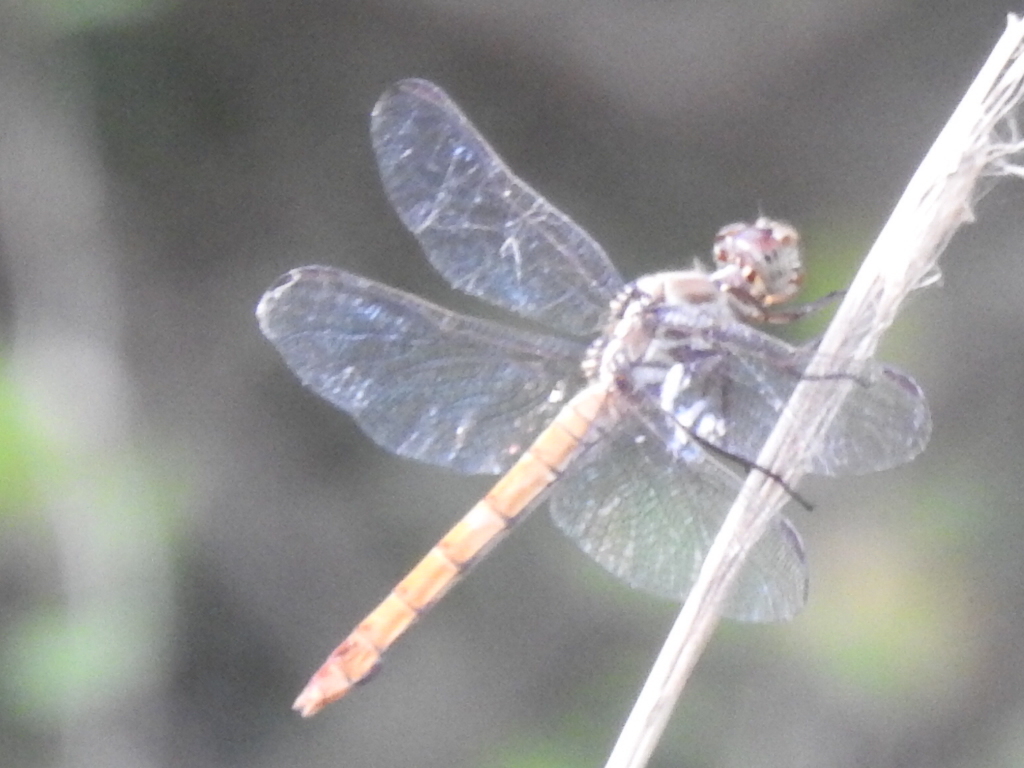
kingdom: Animalia
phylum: Arthropoda
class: Insecta
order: Odonata
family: Libellulidae
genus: Orthemis
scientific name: Orthemis ferruginea
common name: Roseate skimmer
